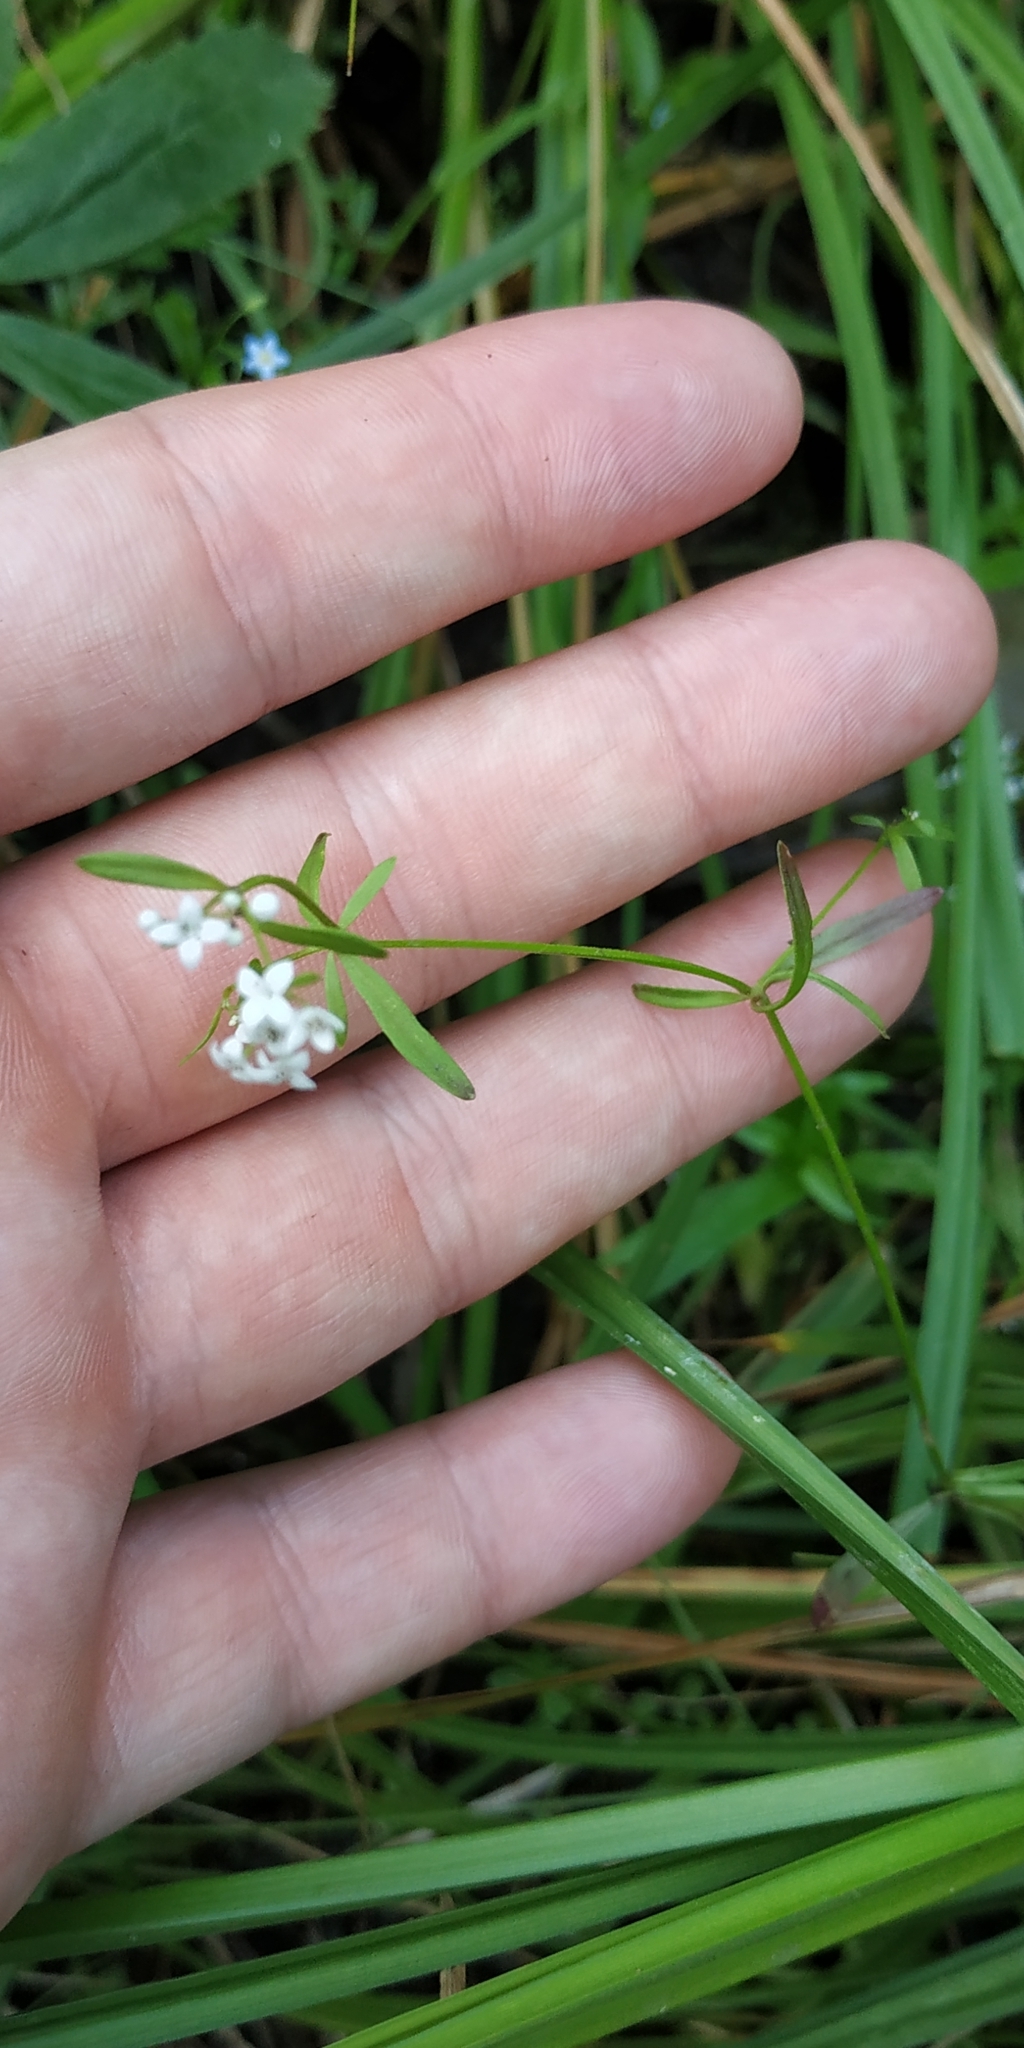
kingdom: Plantae
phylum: Tracheophyta
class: Magnoliopsida
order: Gentianales
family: Rubiaceae
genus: Galium
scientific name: Galium palustre
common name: Common marsh-bedstraw
